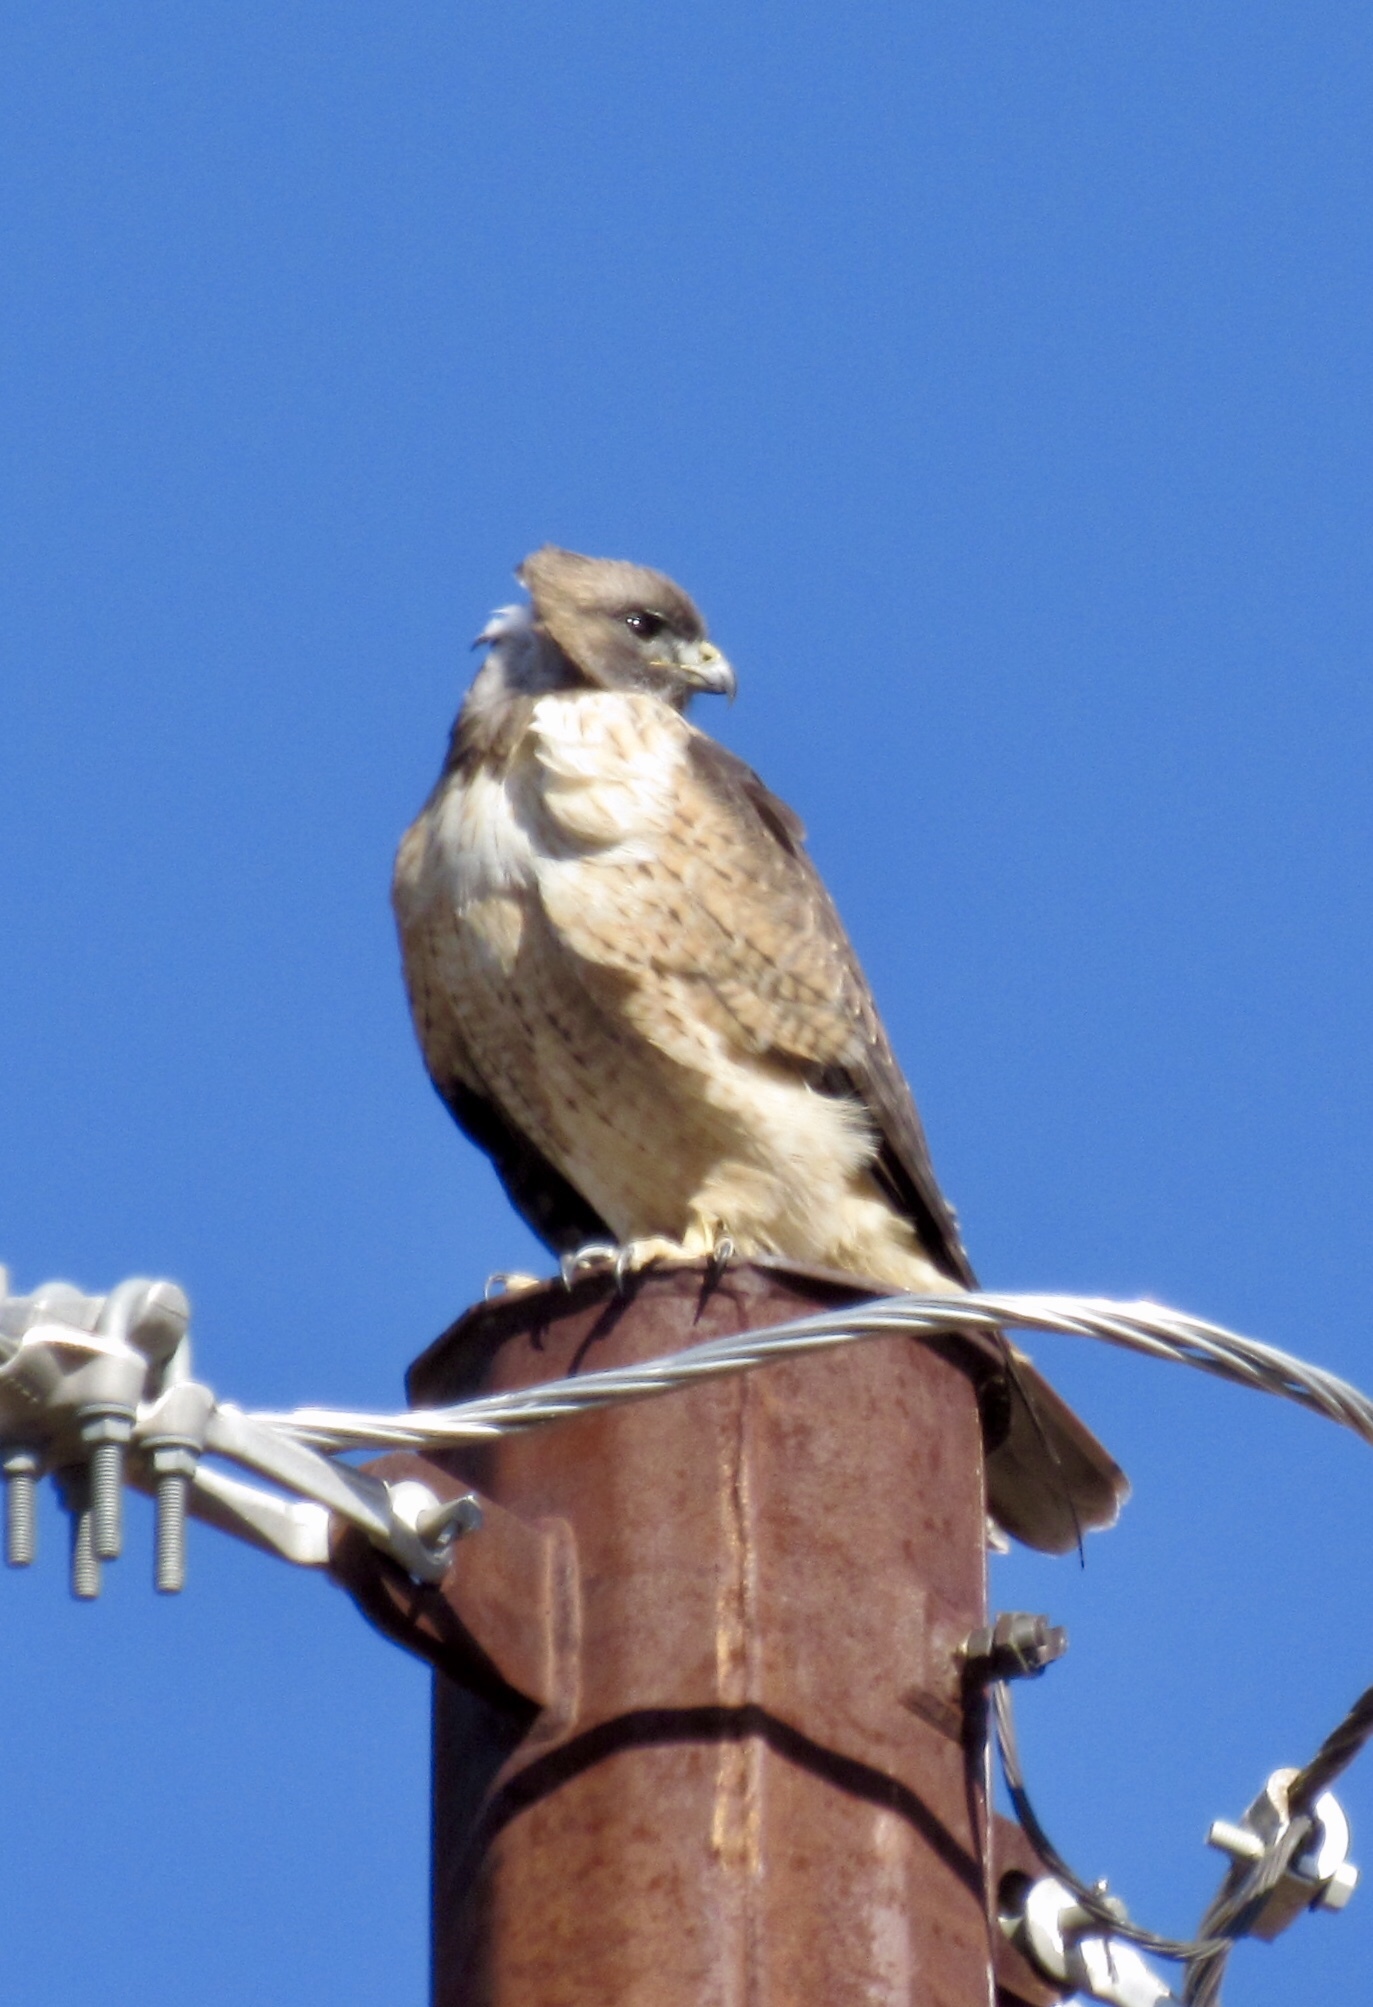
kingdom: Animalia
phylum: Chordata
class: Aves
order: Accipitriformes
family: Accipitridae
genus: Buteo
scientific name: Buteo jamaicensis
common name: Red-tailed hawk
